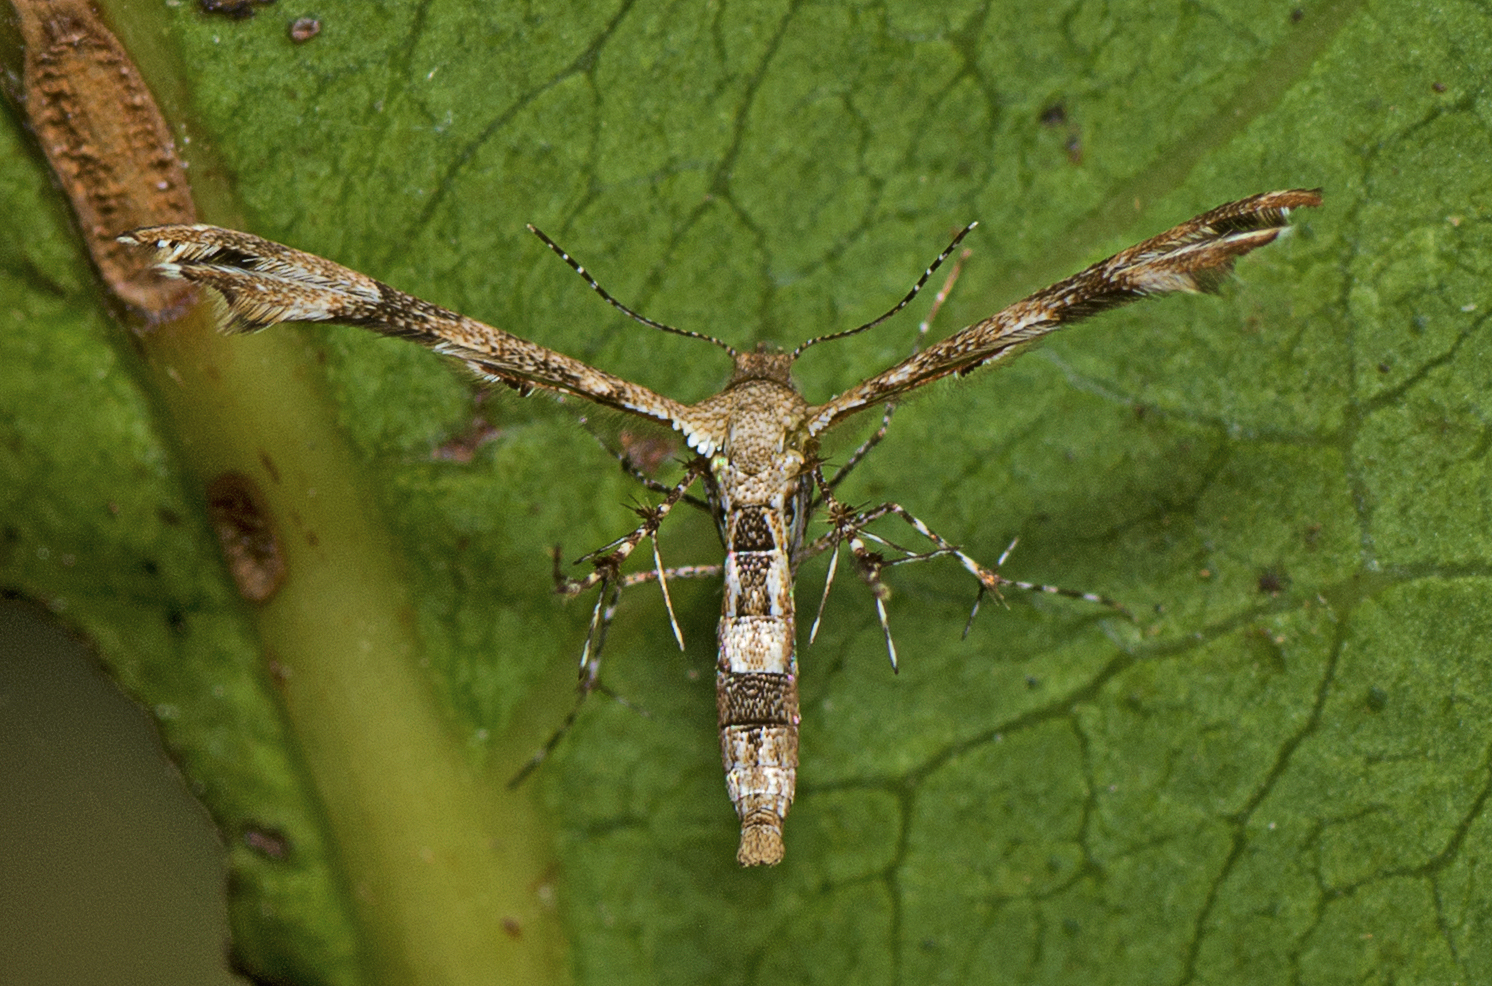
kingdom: Animalia
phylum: Arthropoda
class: Insecta
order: Lepidoptera
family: Pterophoridae
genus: Nippoptilia
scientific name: Nippoptilia cinctipedalis
